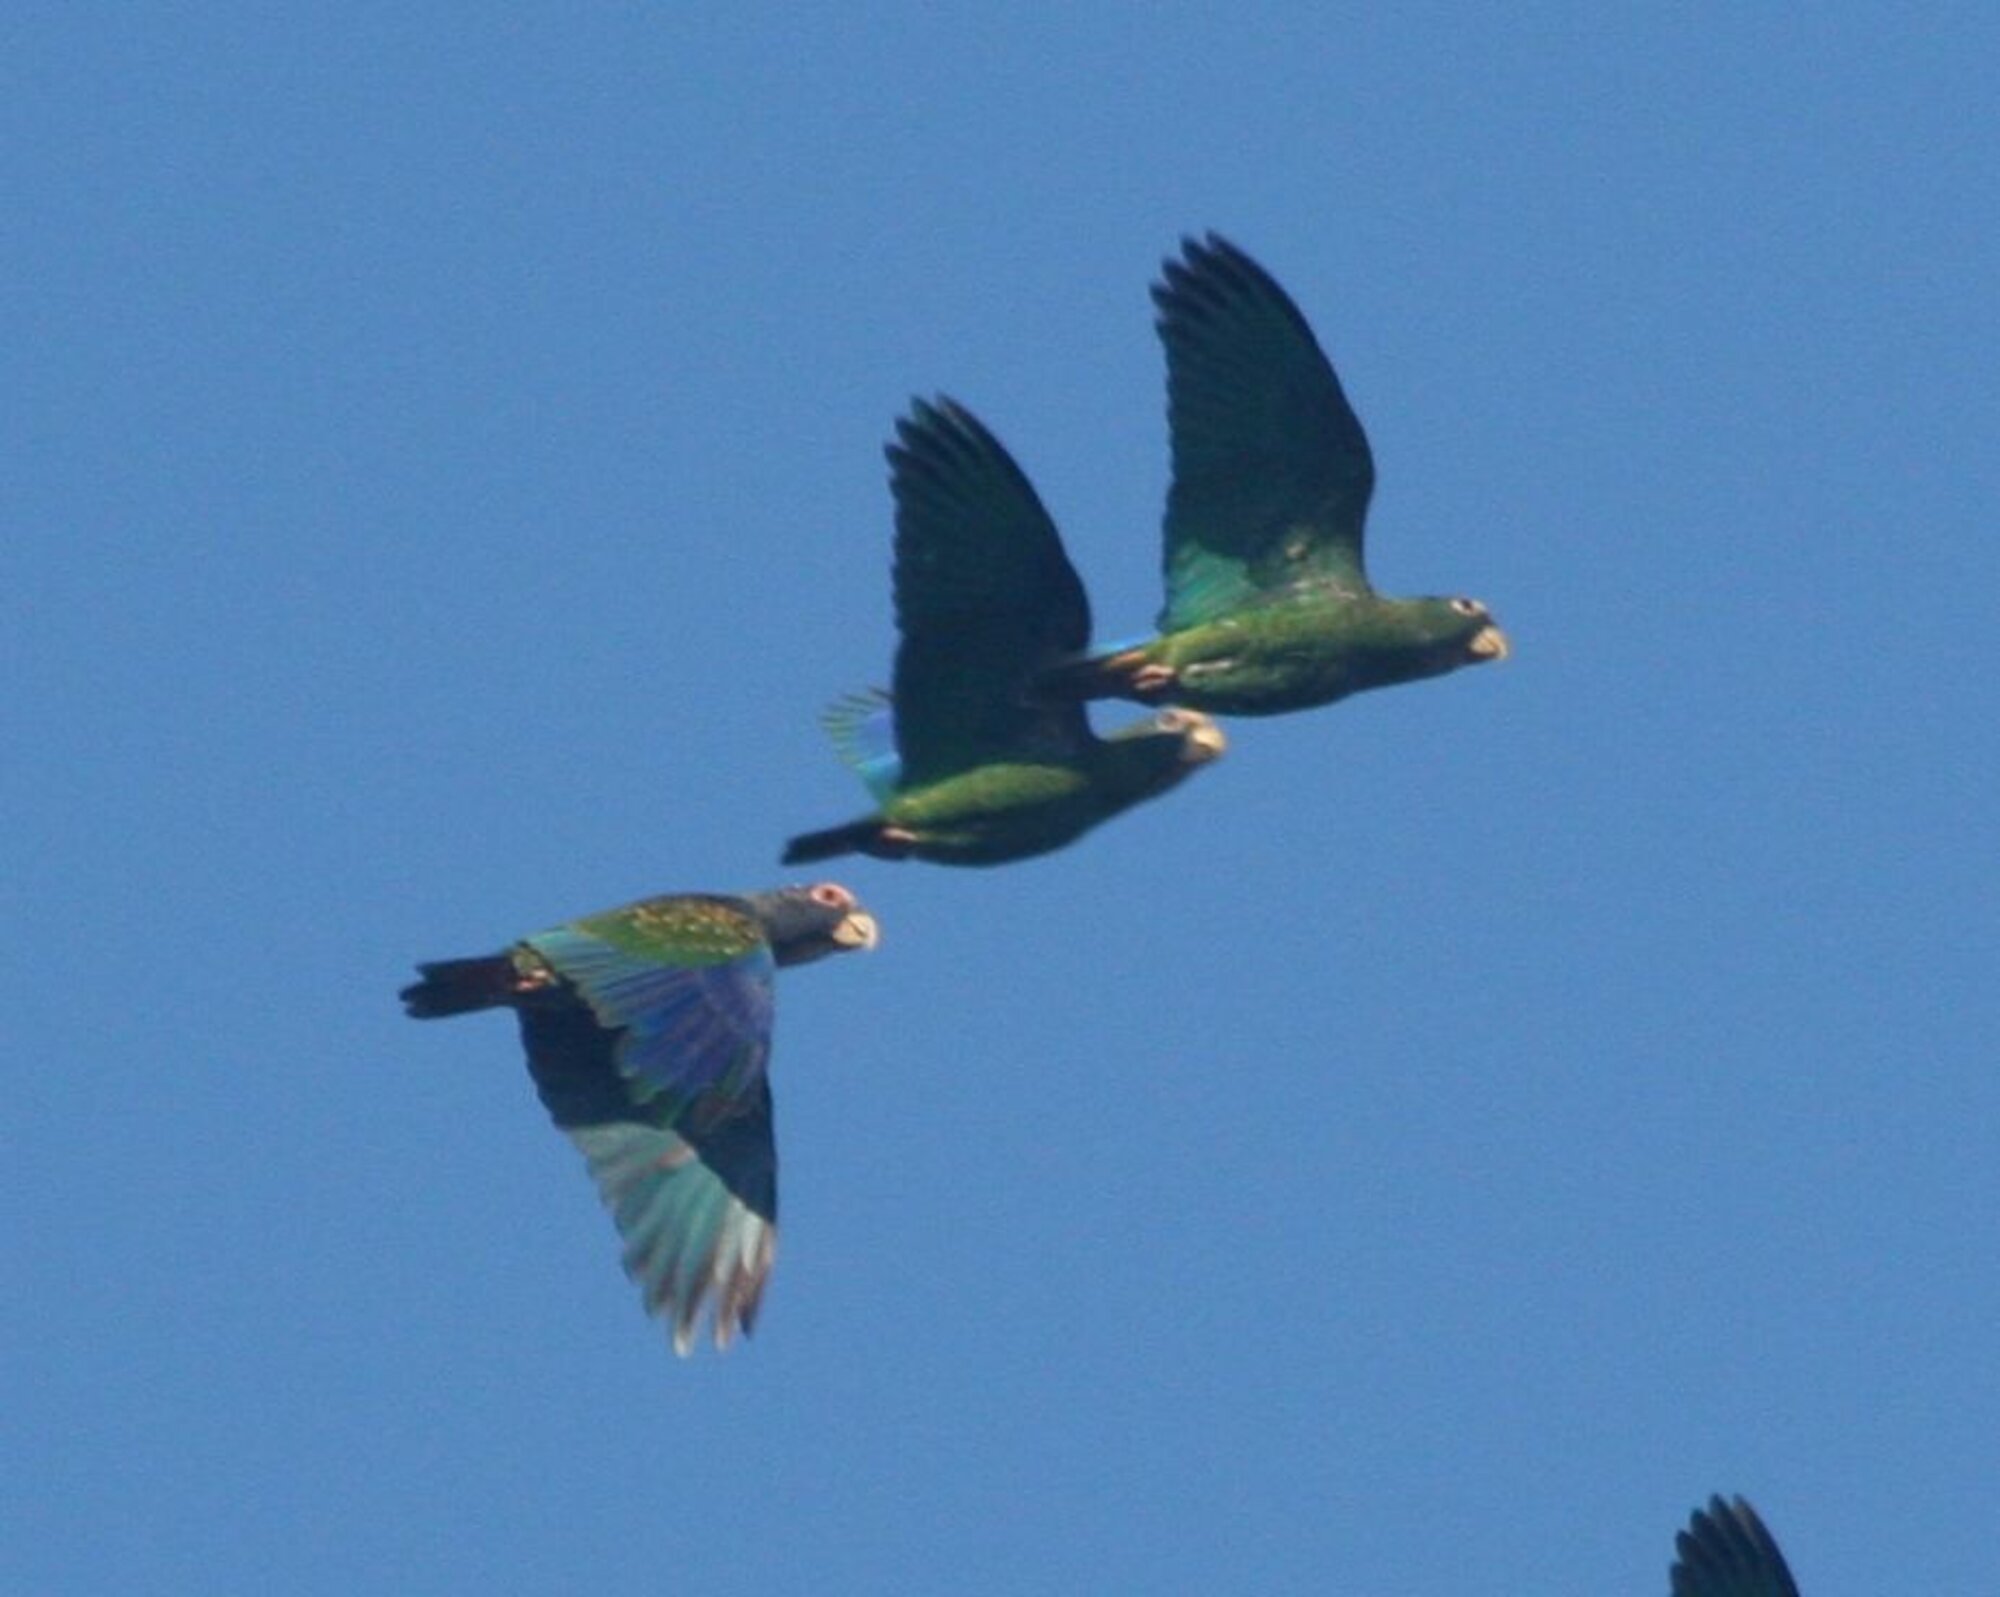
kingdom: Animalia
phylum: Chordata
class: Aves
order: Psittaciformes
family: Psittacidae
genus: Pionus
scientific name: Pionus senilis
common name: White-crowned parrot
